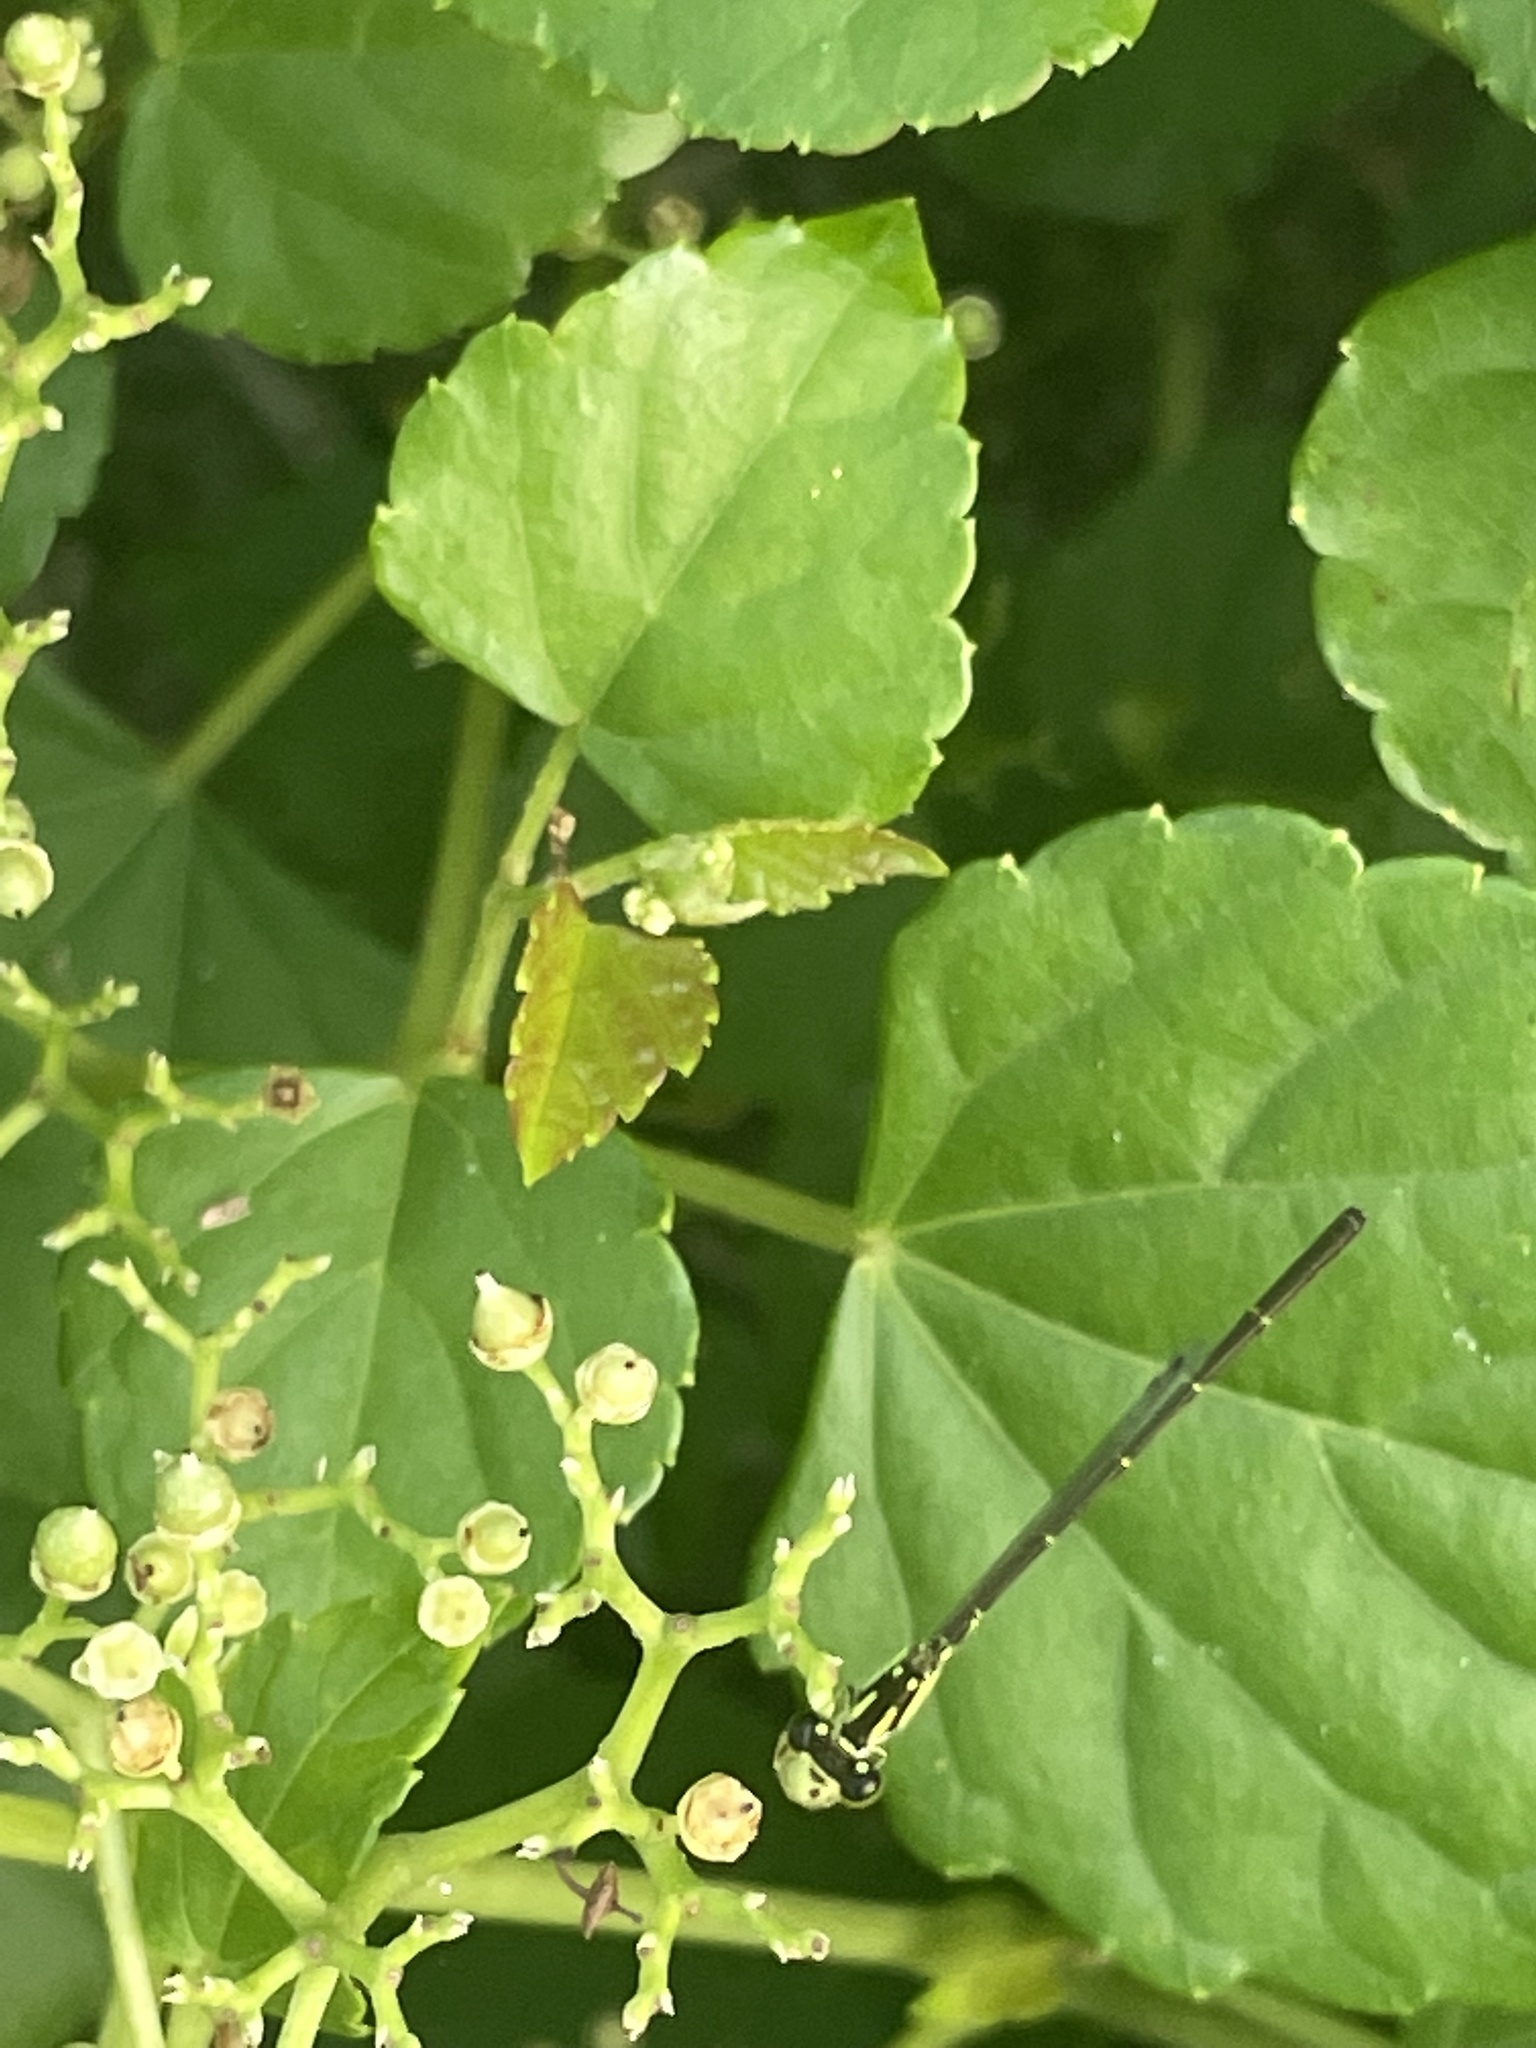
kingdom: Animalia
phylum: Arthropoda
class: Insecta
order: Odonata
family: Coenagrionidae
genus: Ischnura
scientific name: Ischnura posita
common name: Fragile forktail
